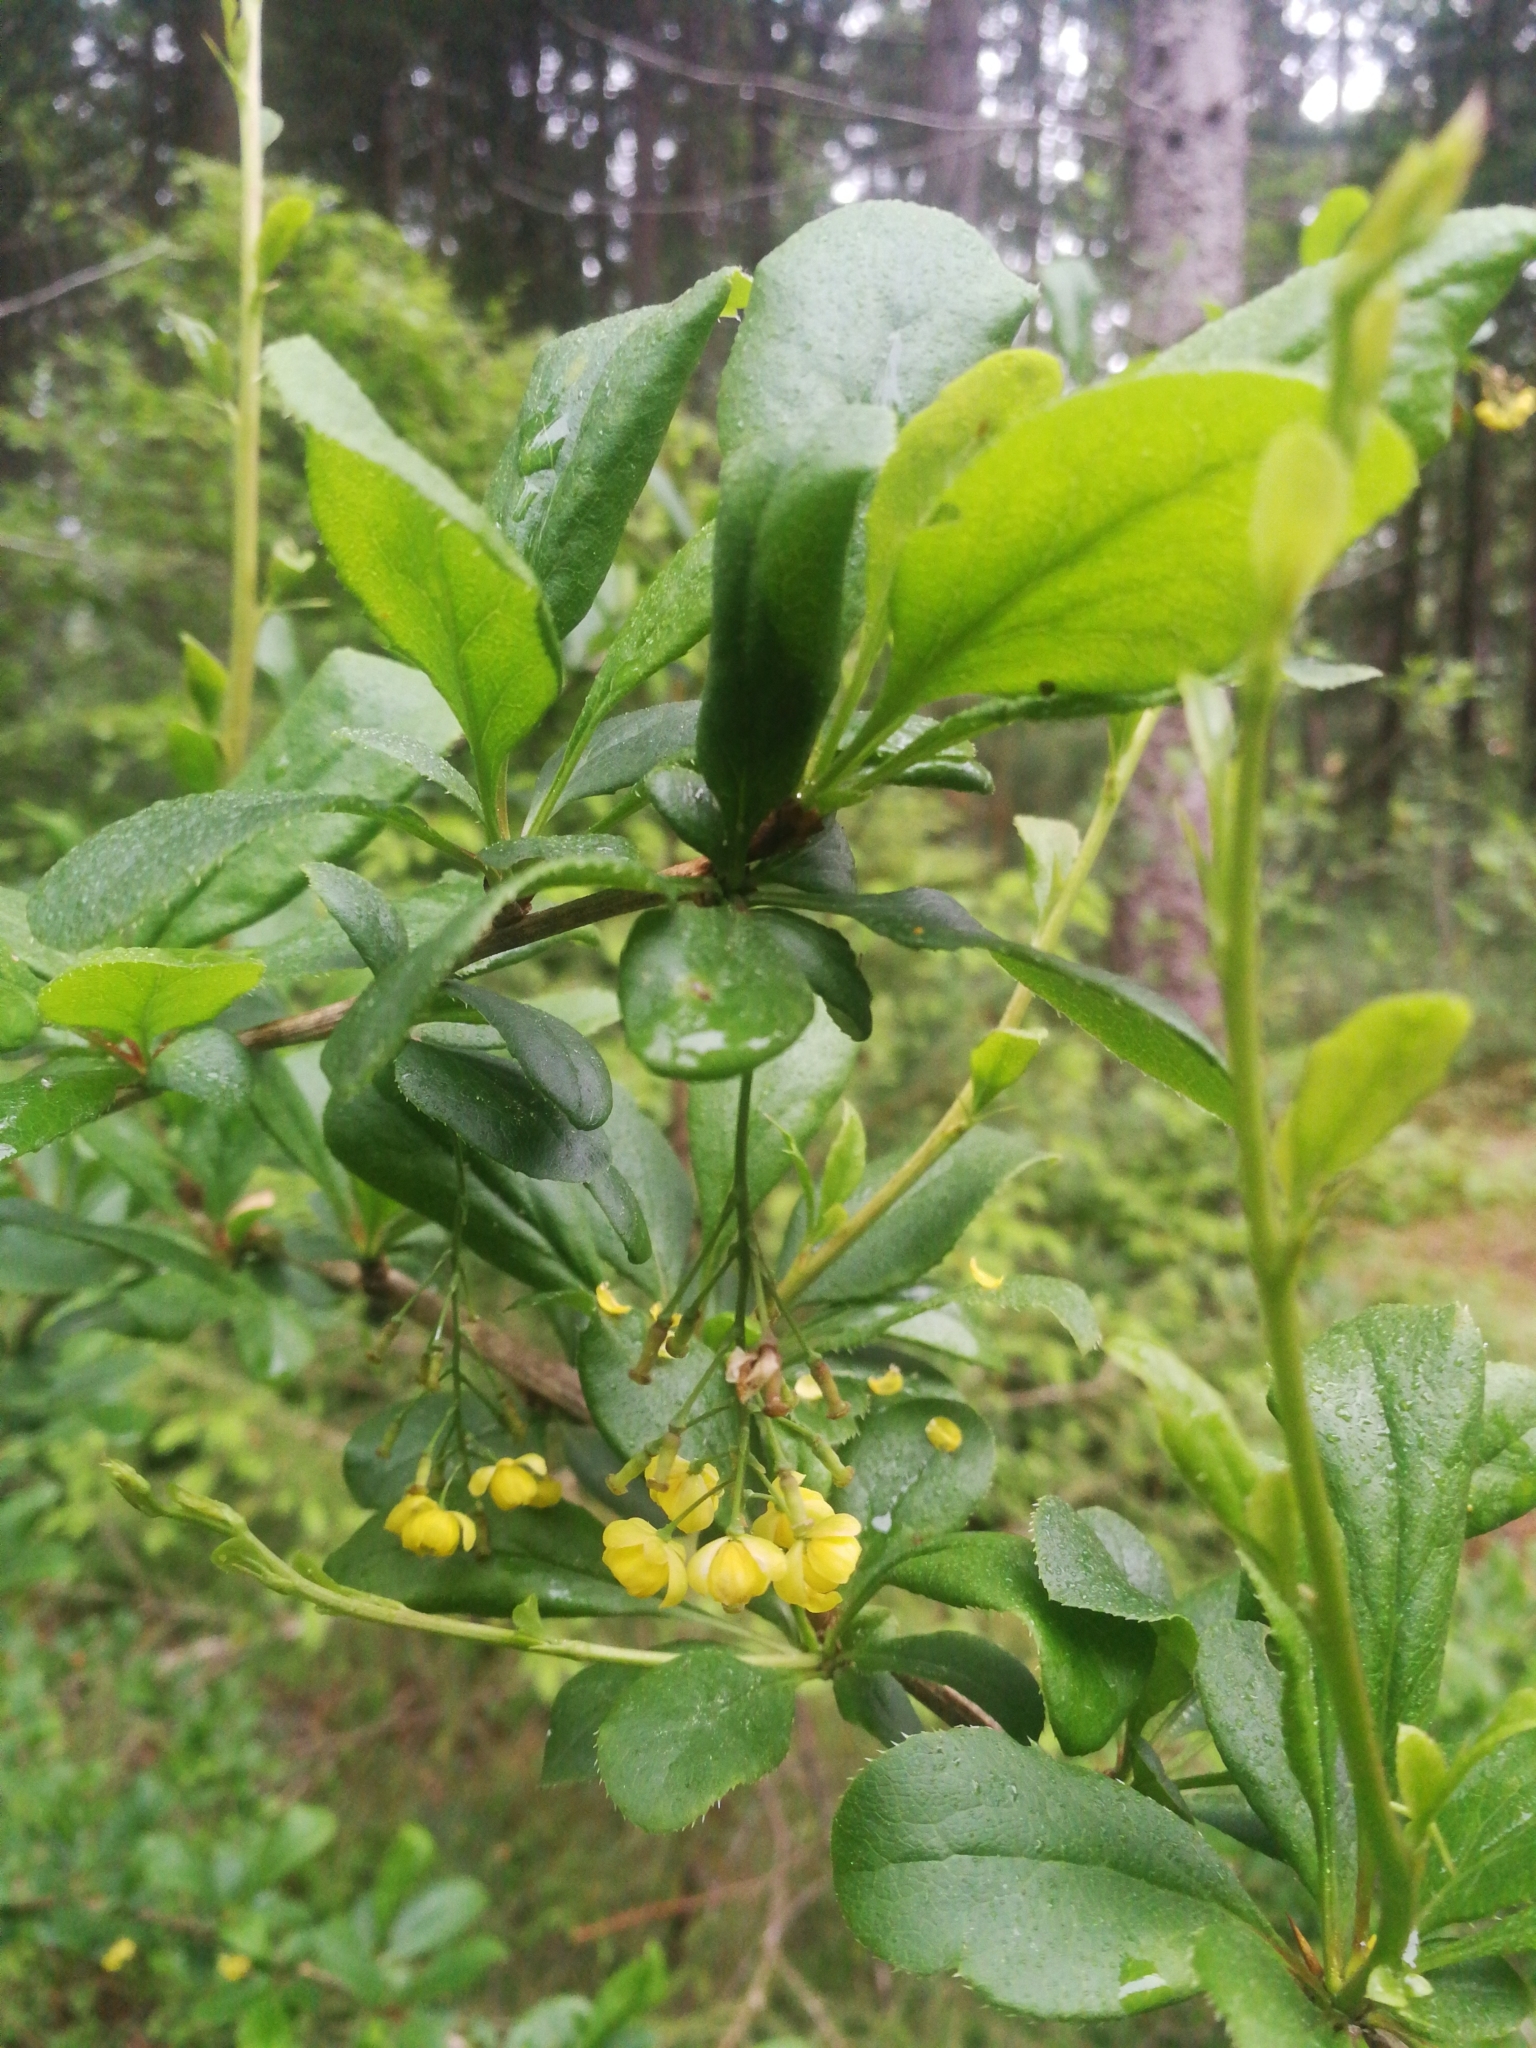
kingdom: Plantae
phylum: Tracheophyta
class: Magnoliopsida
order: Ranunculales
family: Berberidaceae
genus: Berberis
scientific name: Berberis vulgaris
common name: Barberry
